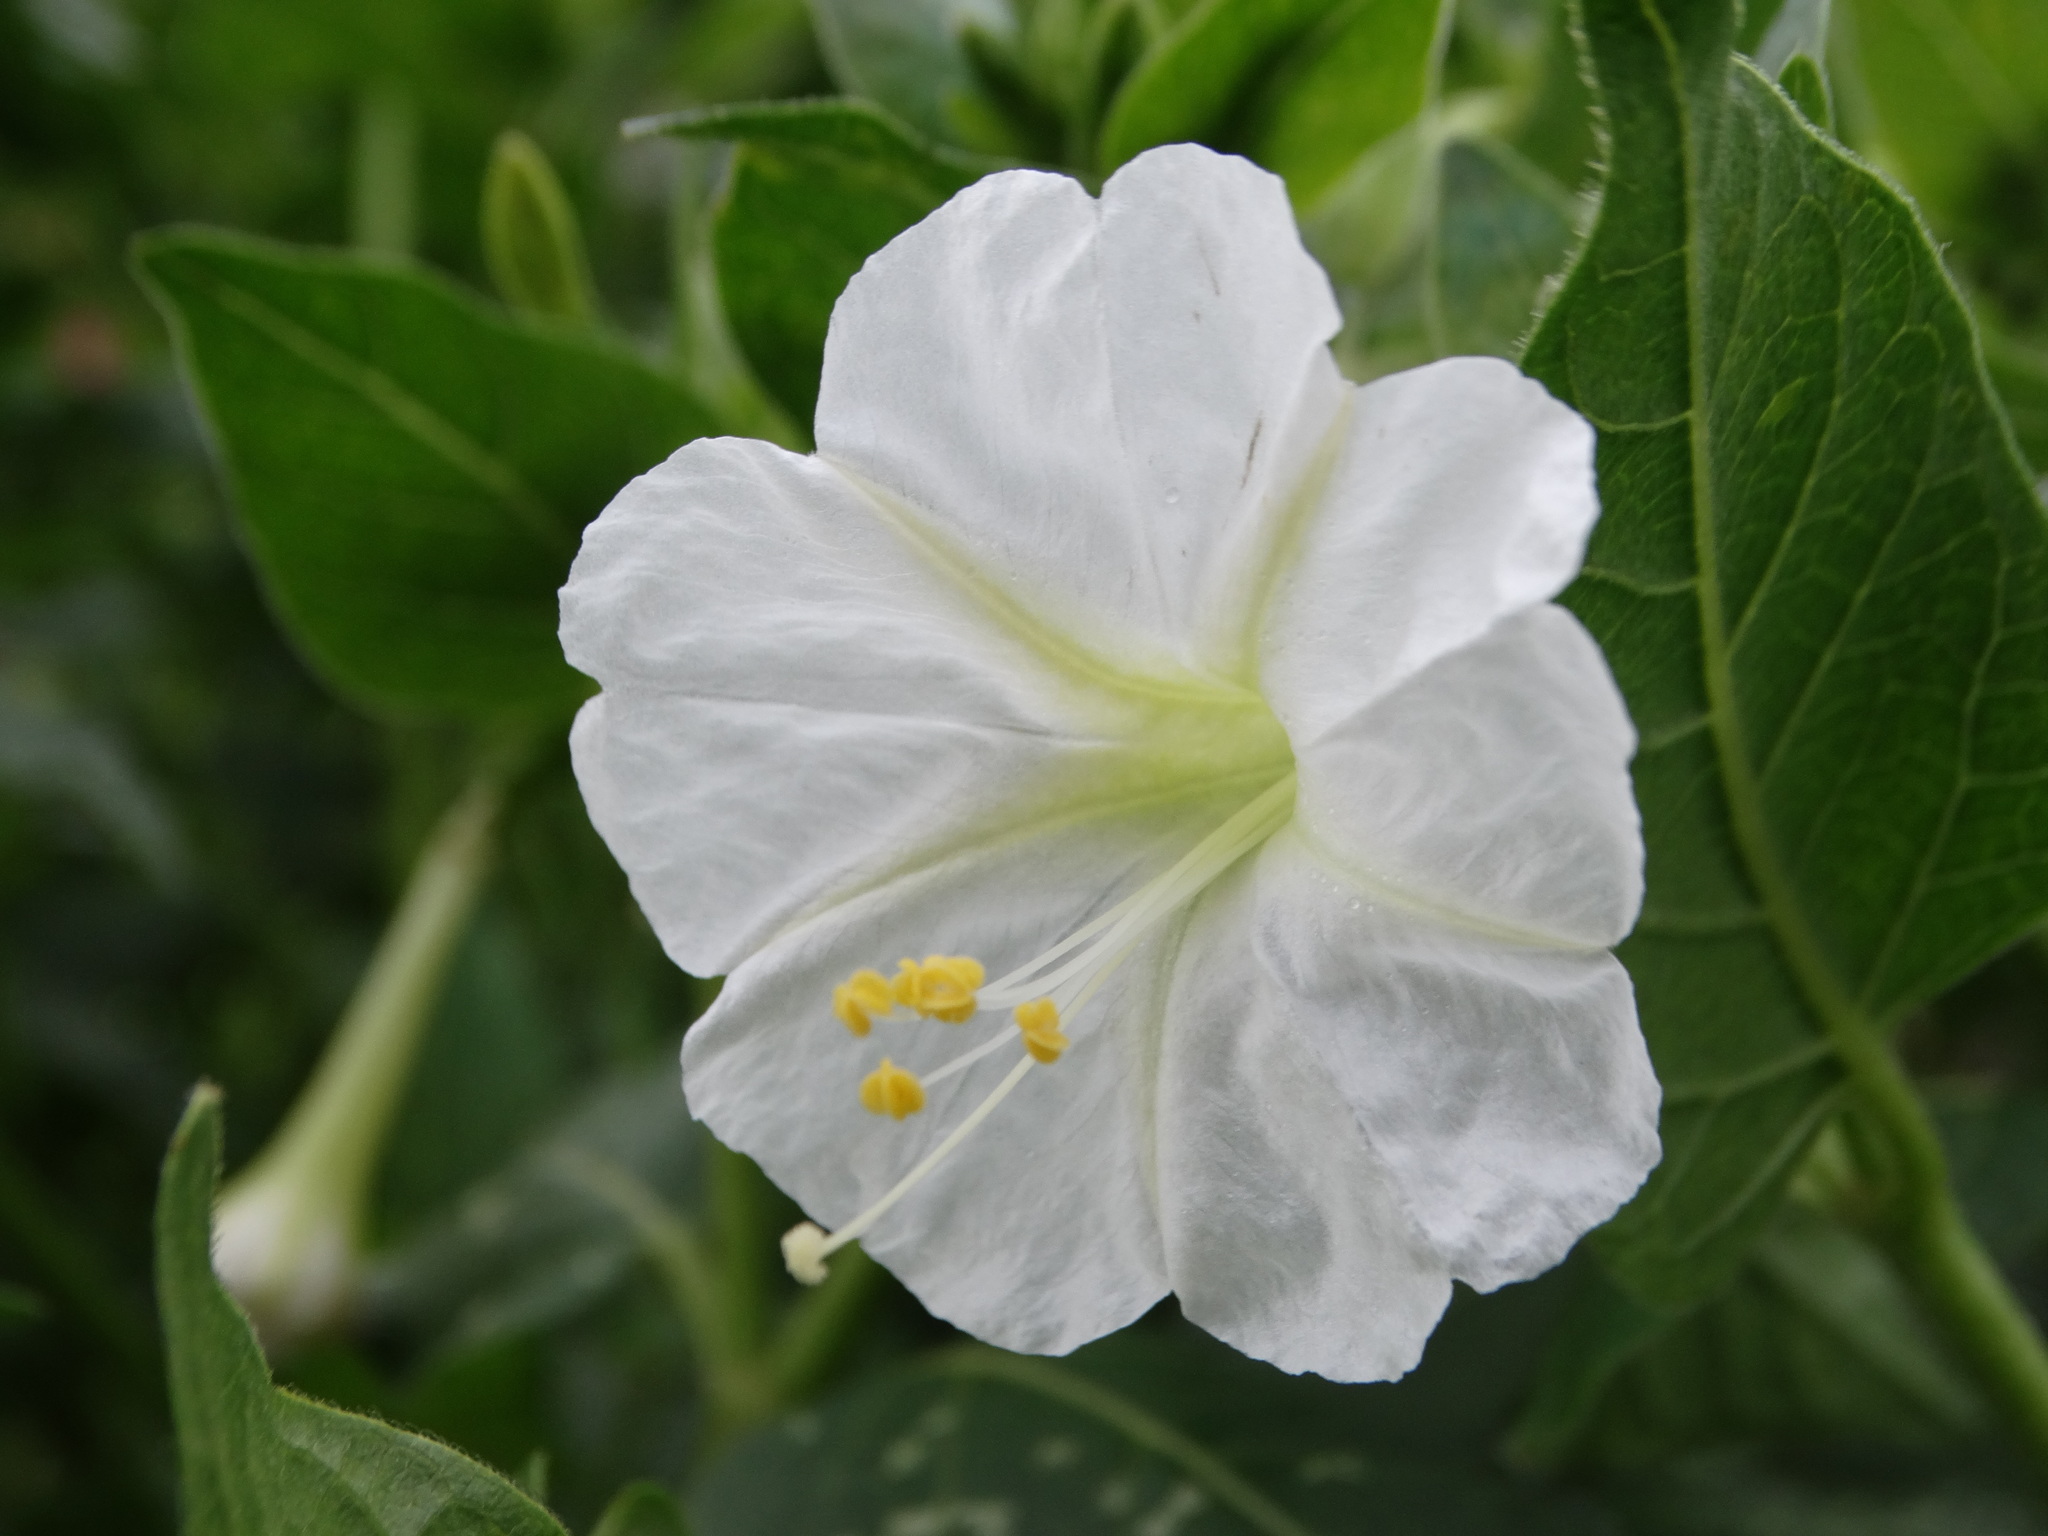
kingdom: Plantae
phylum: Tracheophyta
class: Magnoliopsida
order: Caryophyllales
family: Nyctaginaceae
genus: Mirabilis
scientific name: Mirabilis jalapa
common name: Marvel-of-peru
